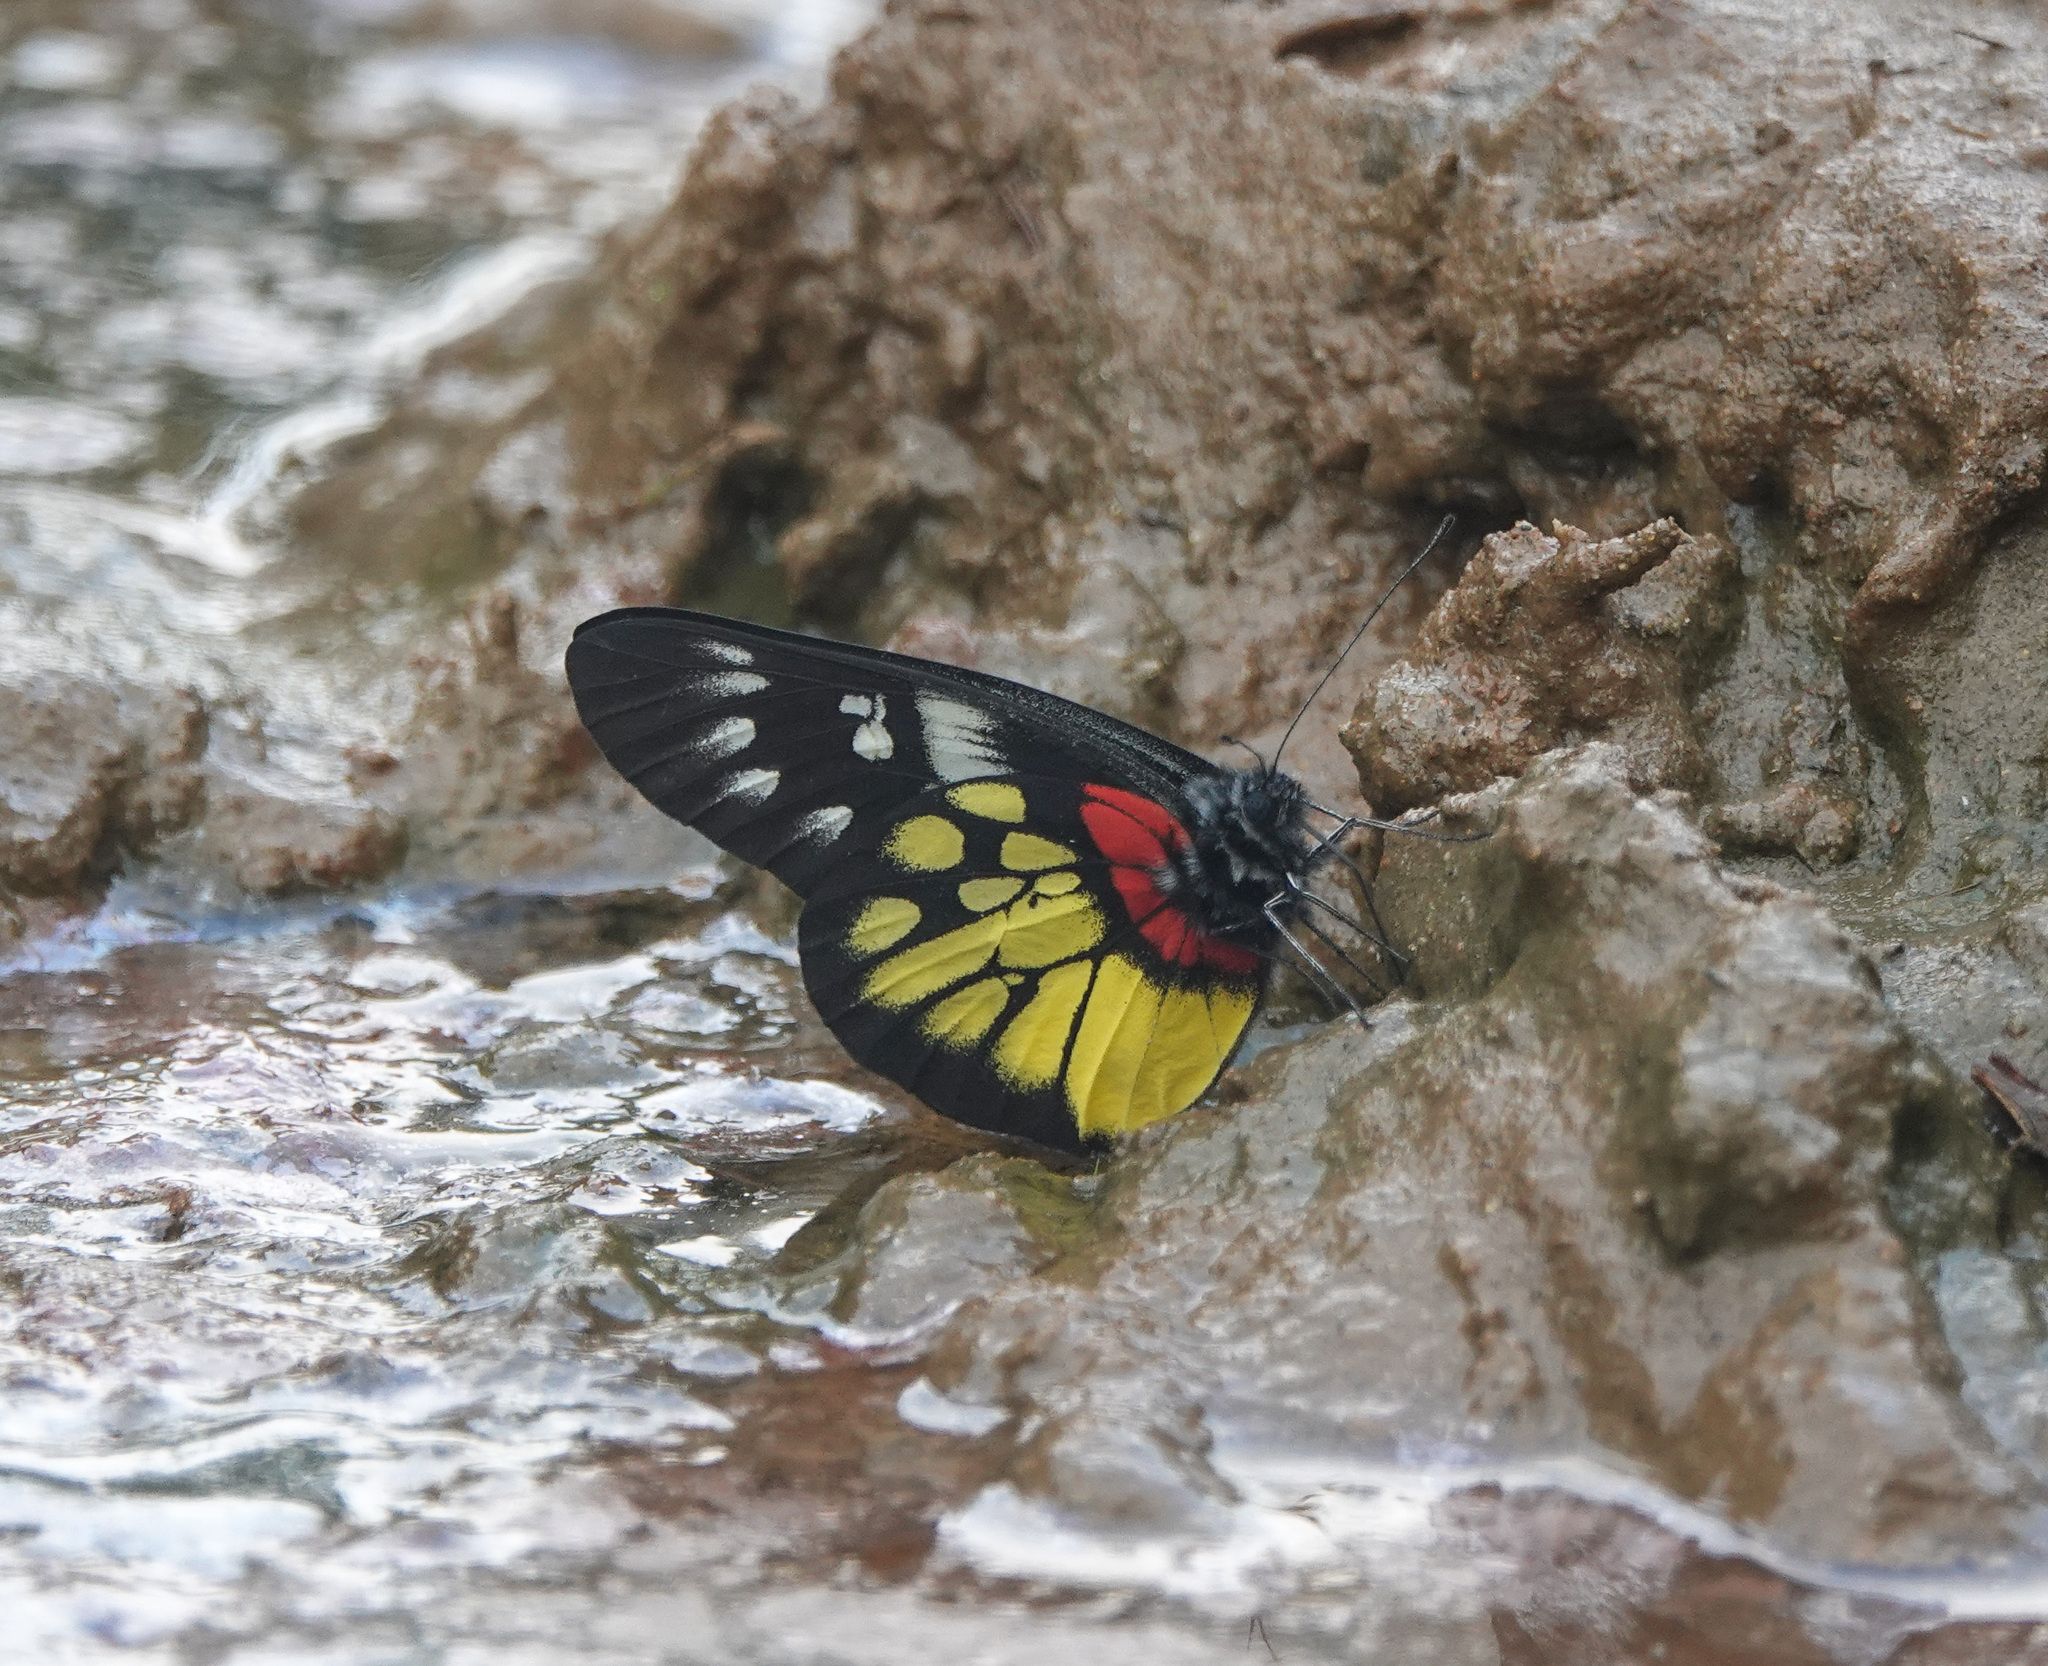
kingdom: Animalia
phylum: Arthropoda
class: Insecta
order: Lepidoptera
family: Pieridae
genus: Delias
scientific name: Delias pasithoe
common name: Red-base jezebel
